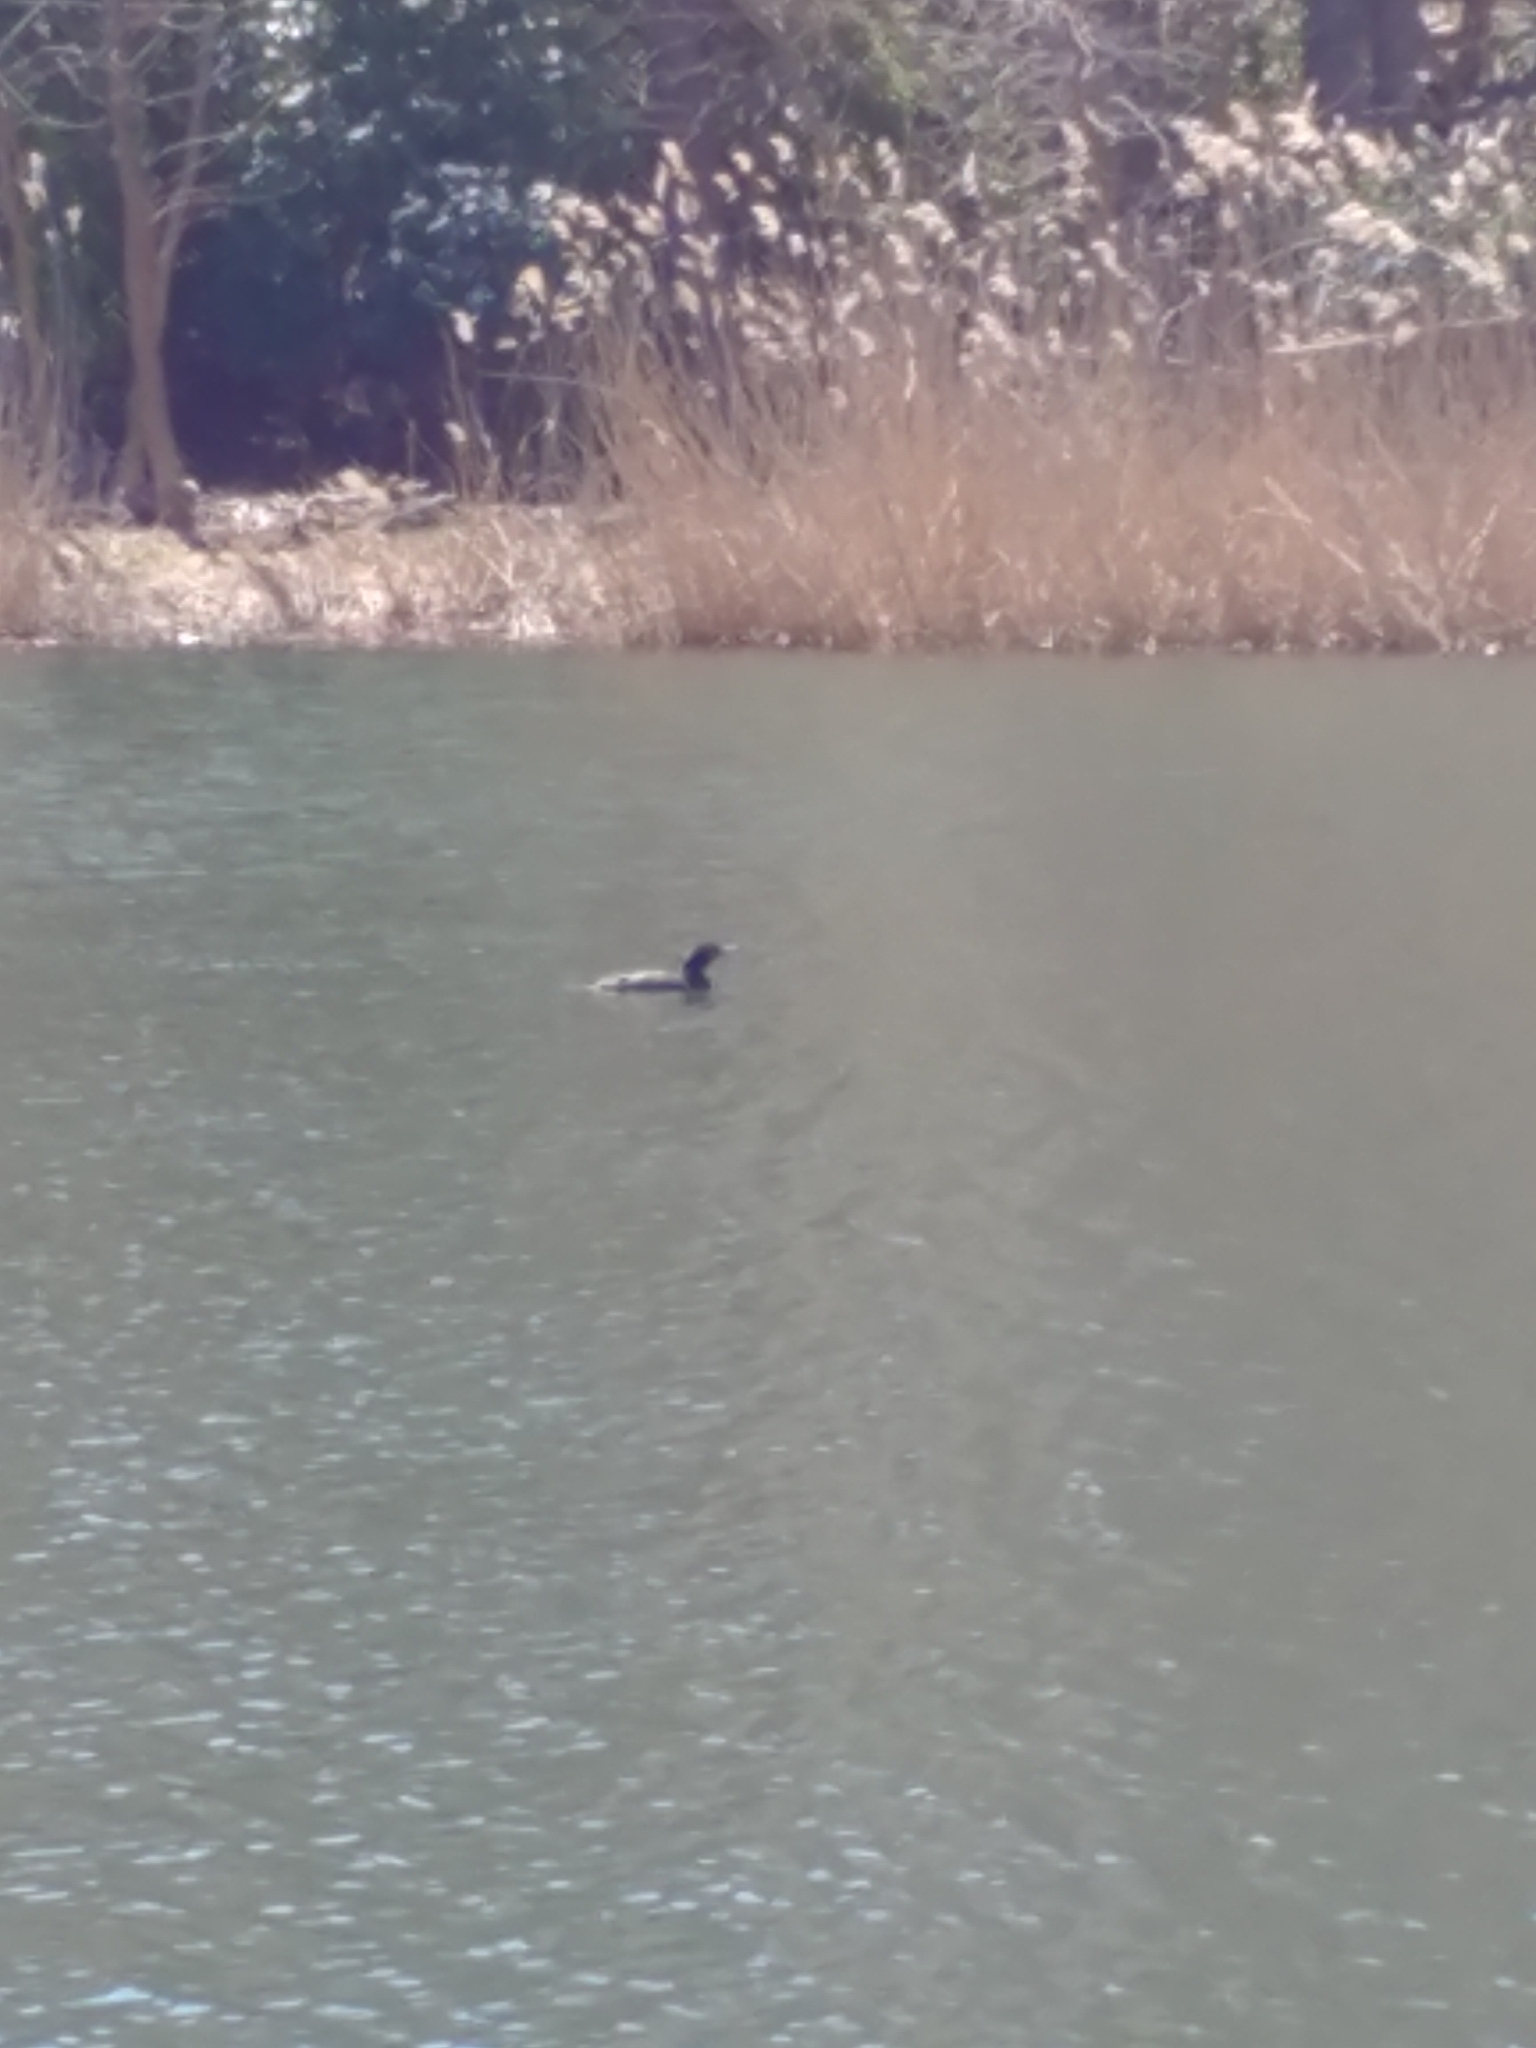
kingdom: Animalia
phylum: Chordata
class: Aves
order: Suliformes
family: Phalacrocoracidae
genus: Phalacrocorax
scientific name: Phalacrocorax auritus
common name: Double-crested cormorant
